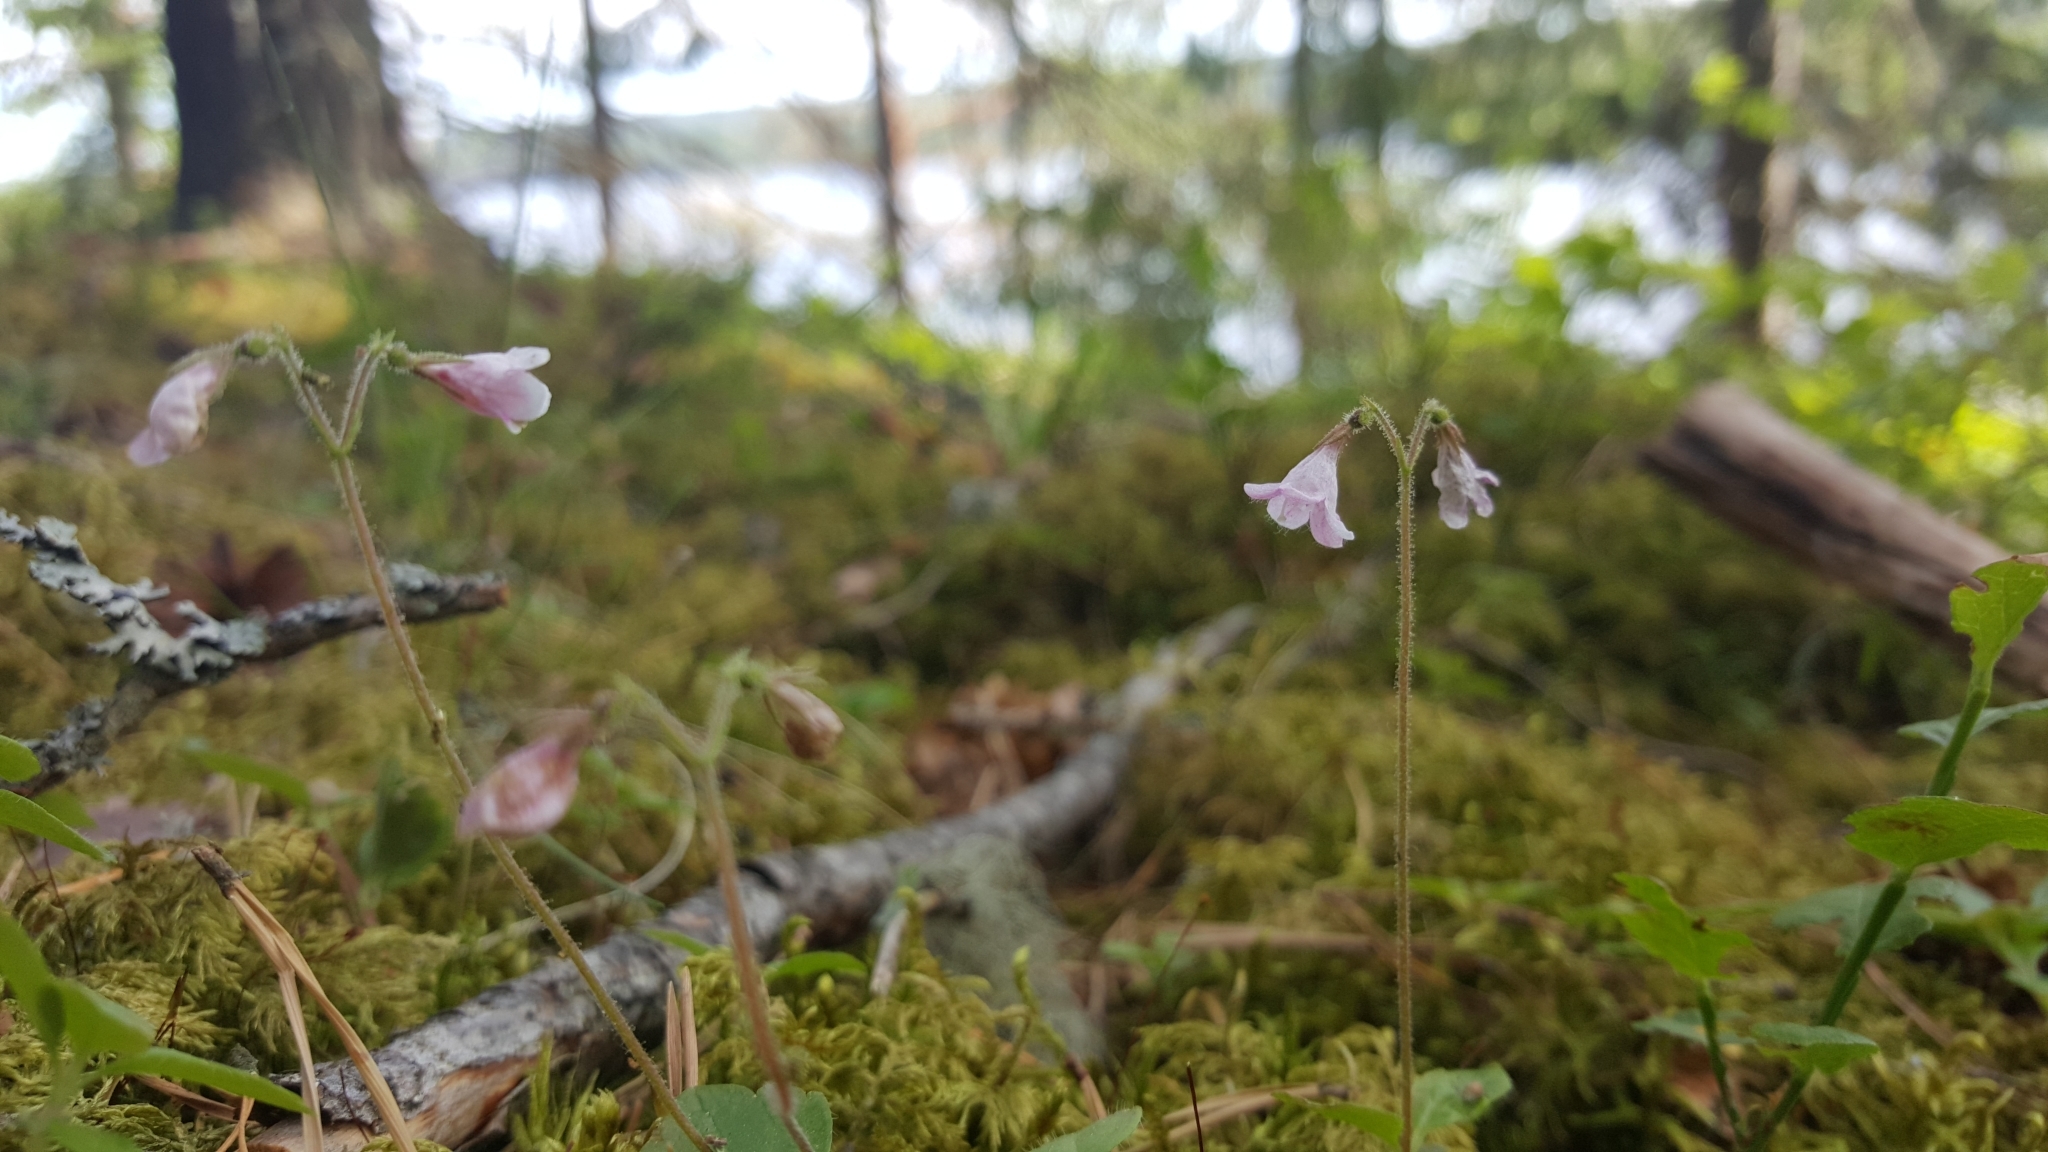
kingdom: Plantae
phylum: Tracheophyta
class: Magnoliopsida
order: Dipsacales
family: Caprifoliaceae
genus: Linnaea
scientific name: Linnaea borealis
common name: Twinflower
